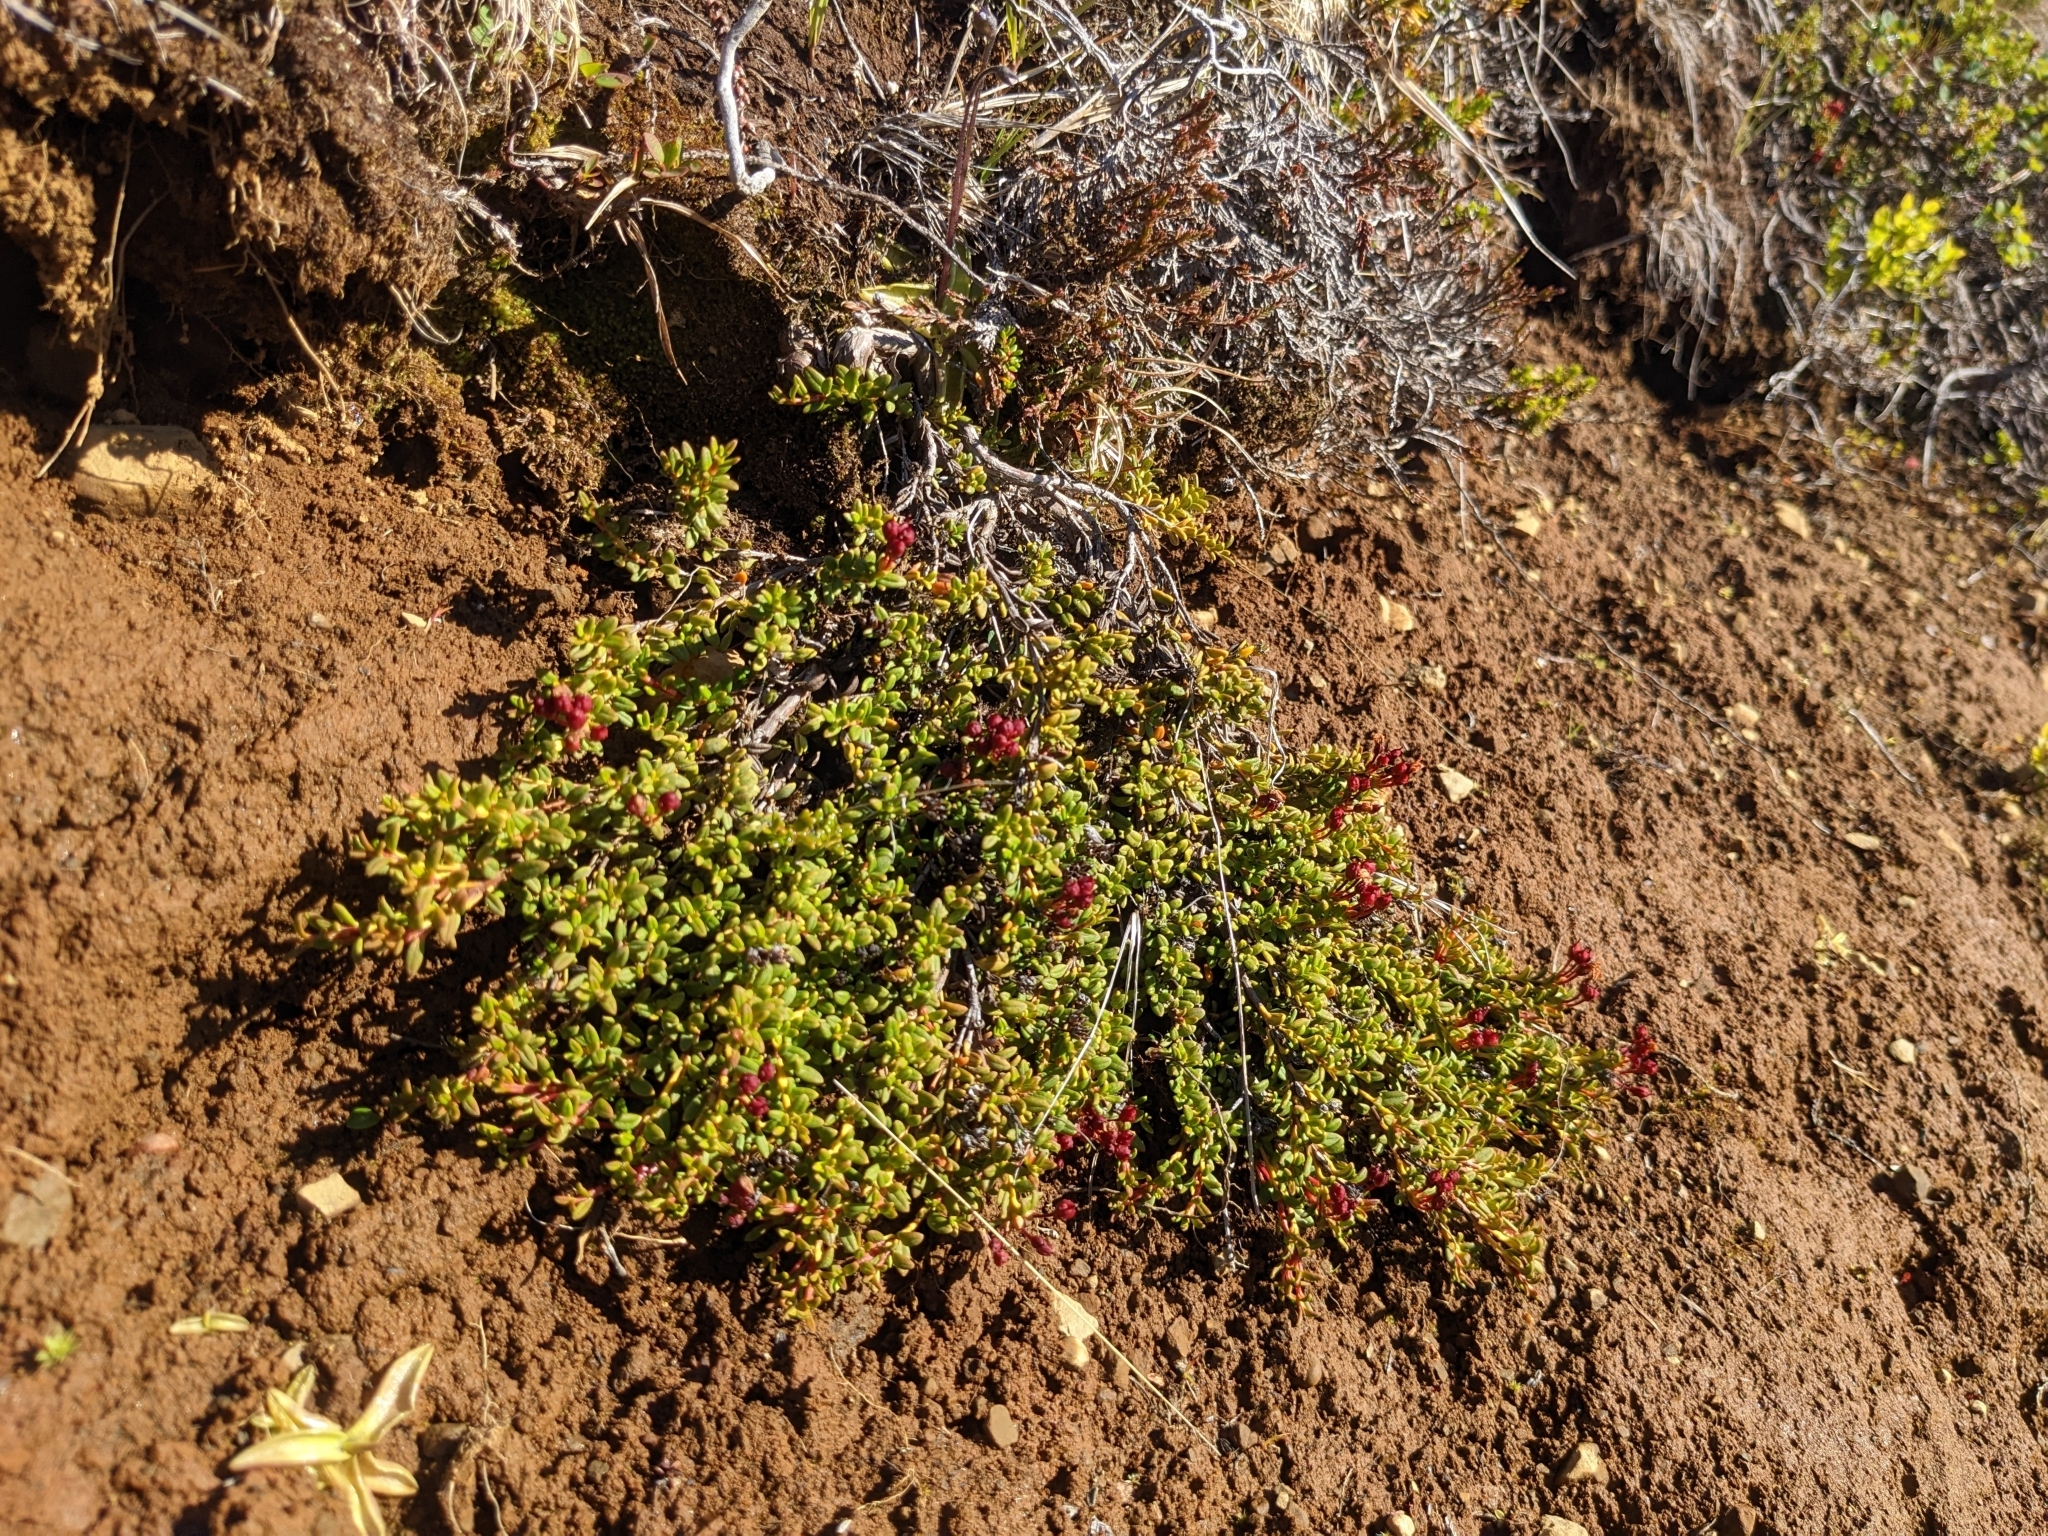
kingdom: Plantae
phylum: Tracheophyta
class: Magnoliopsida
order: Ericales
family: Ericaceae
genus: Kalmia
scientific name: Kalmia procumbens
